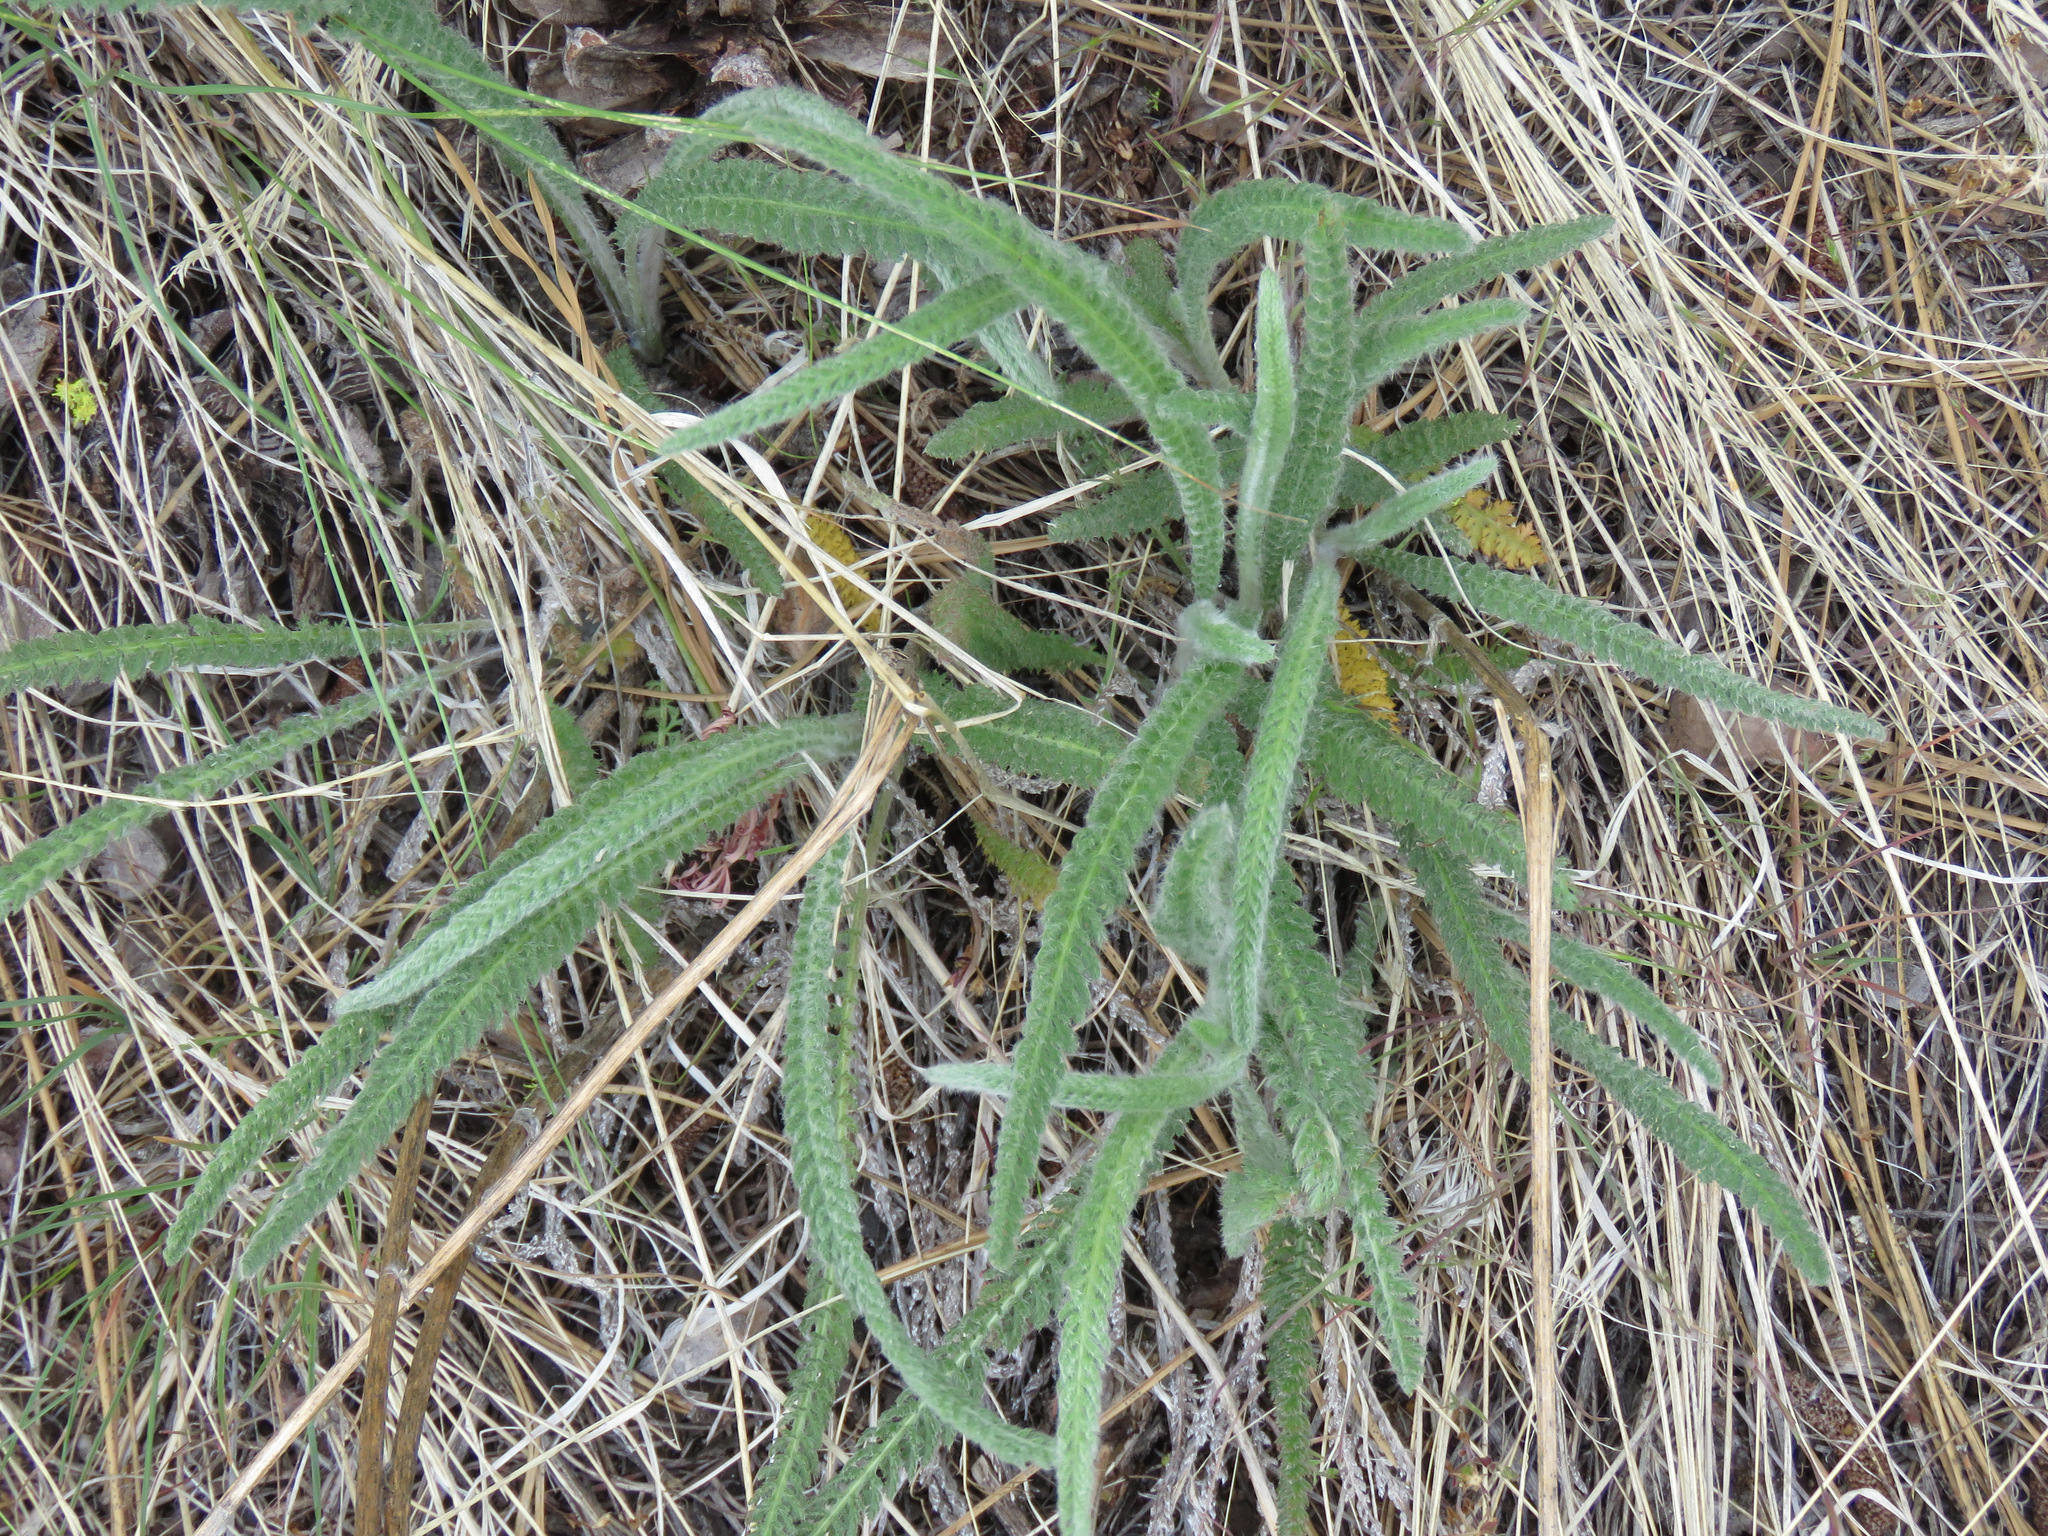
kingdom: Plantae
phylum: Tracheophyta
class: Magnoliopsida
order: Asterales
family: Asteraceae
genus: Achillea
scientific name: Achillea millefolium
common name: Yarrow
